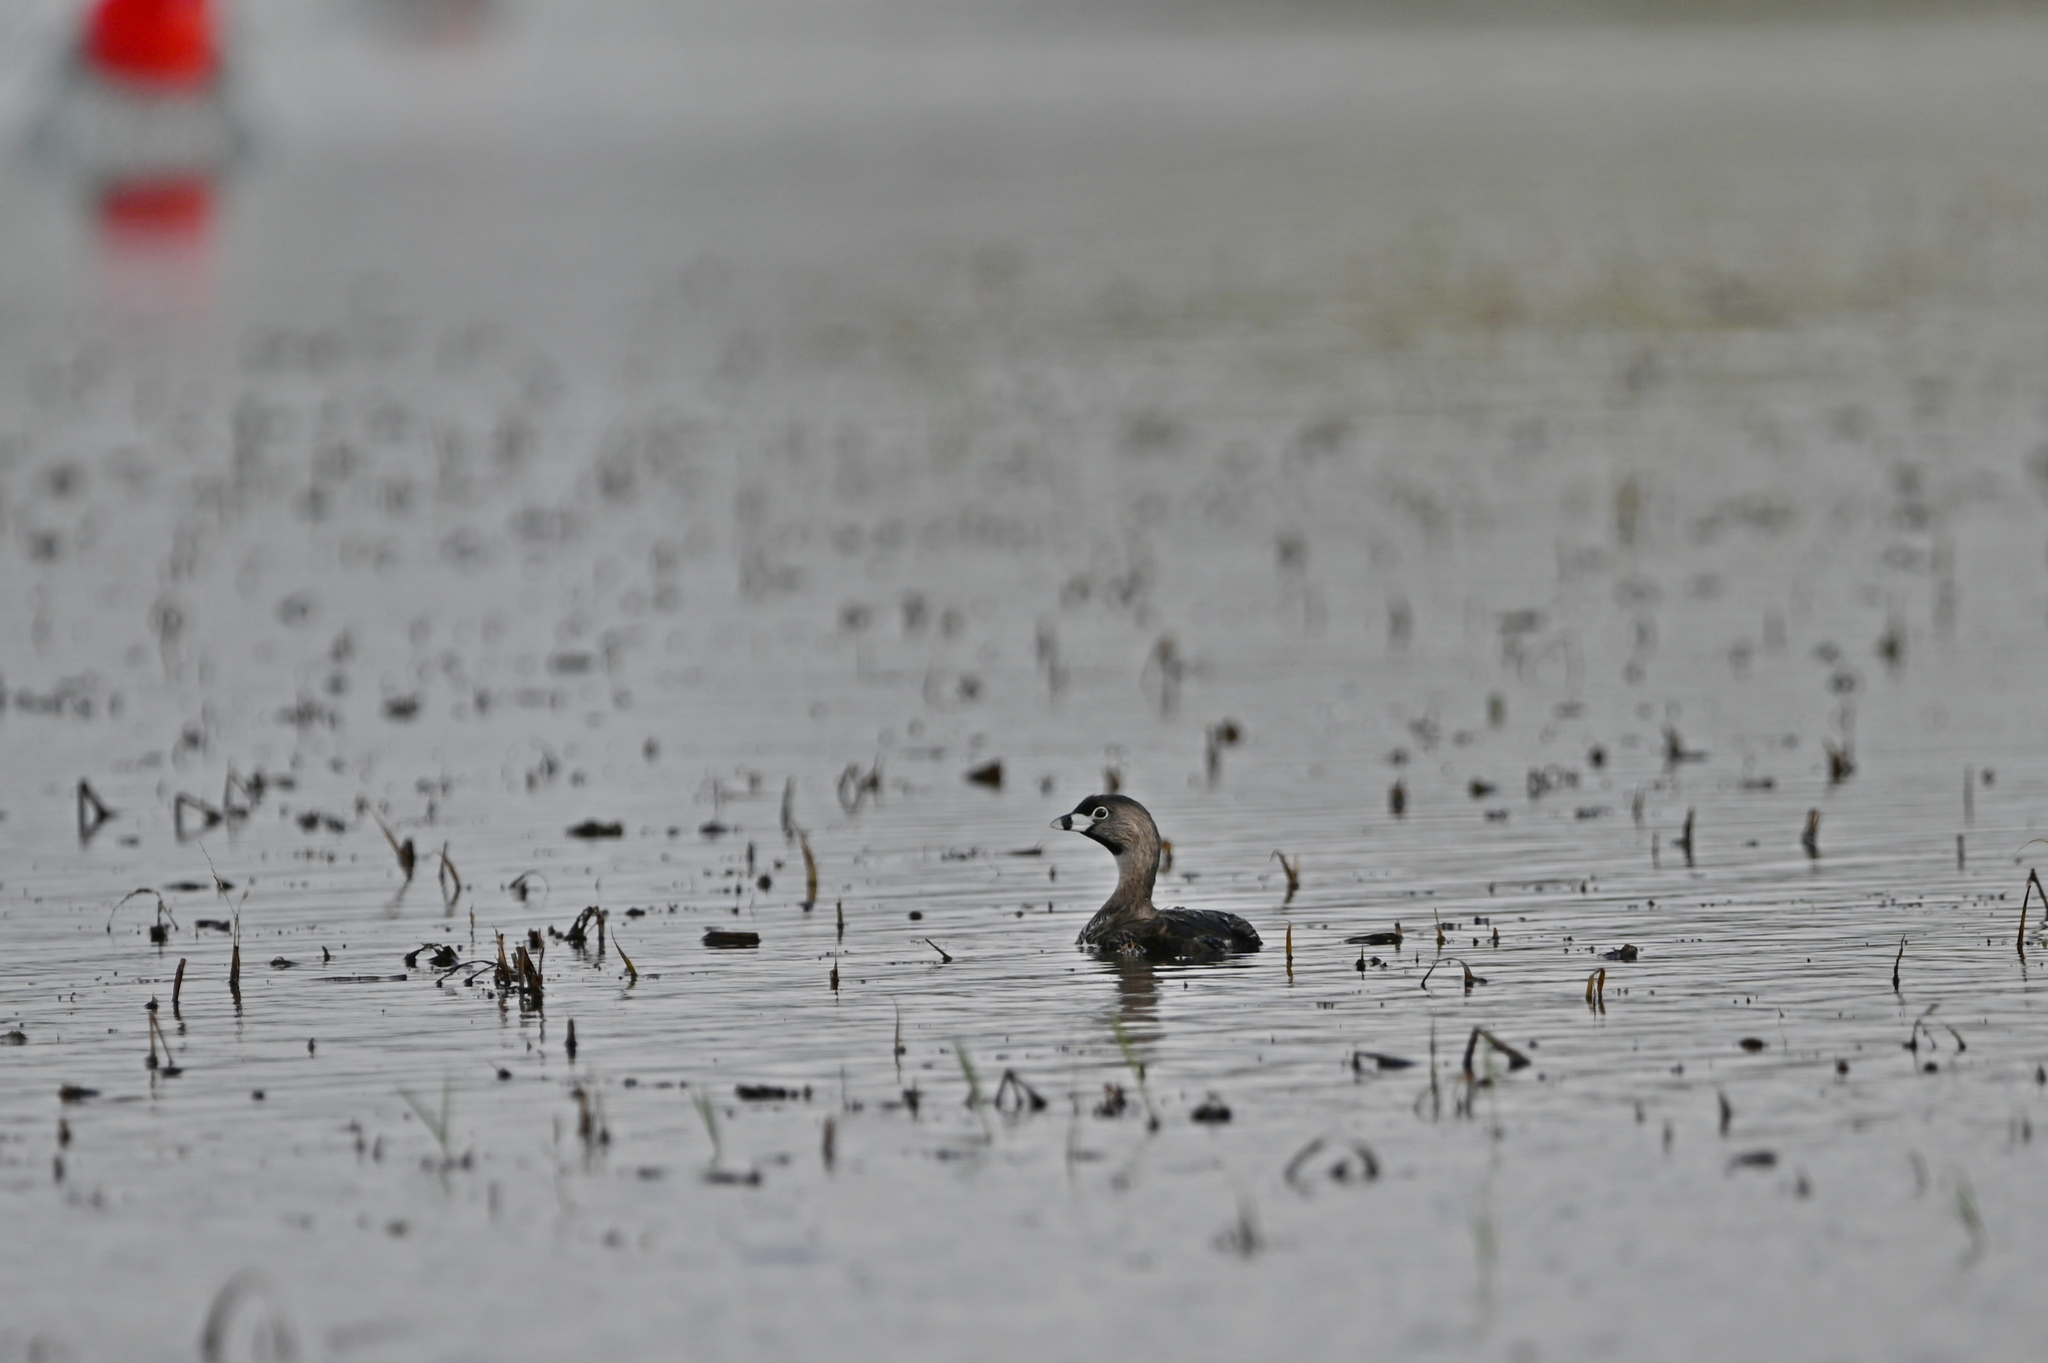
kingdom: Animalia
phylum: Chordata
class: Aves
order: Podicipediformes
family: Podicipedidae
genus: Podilymbus
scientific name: Podilymbus podiceps
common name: Pied-billed grebe
